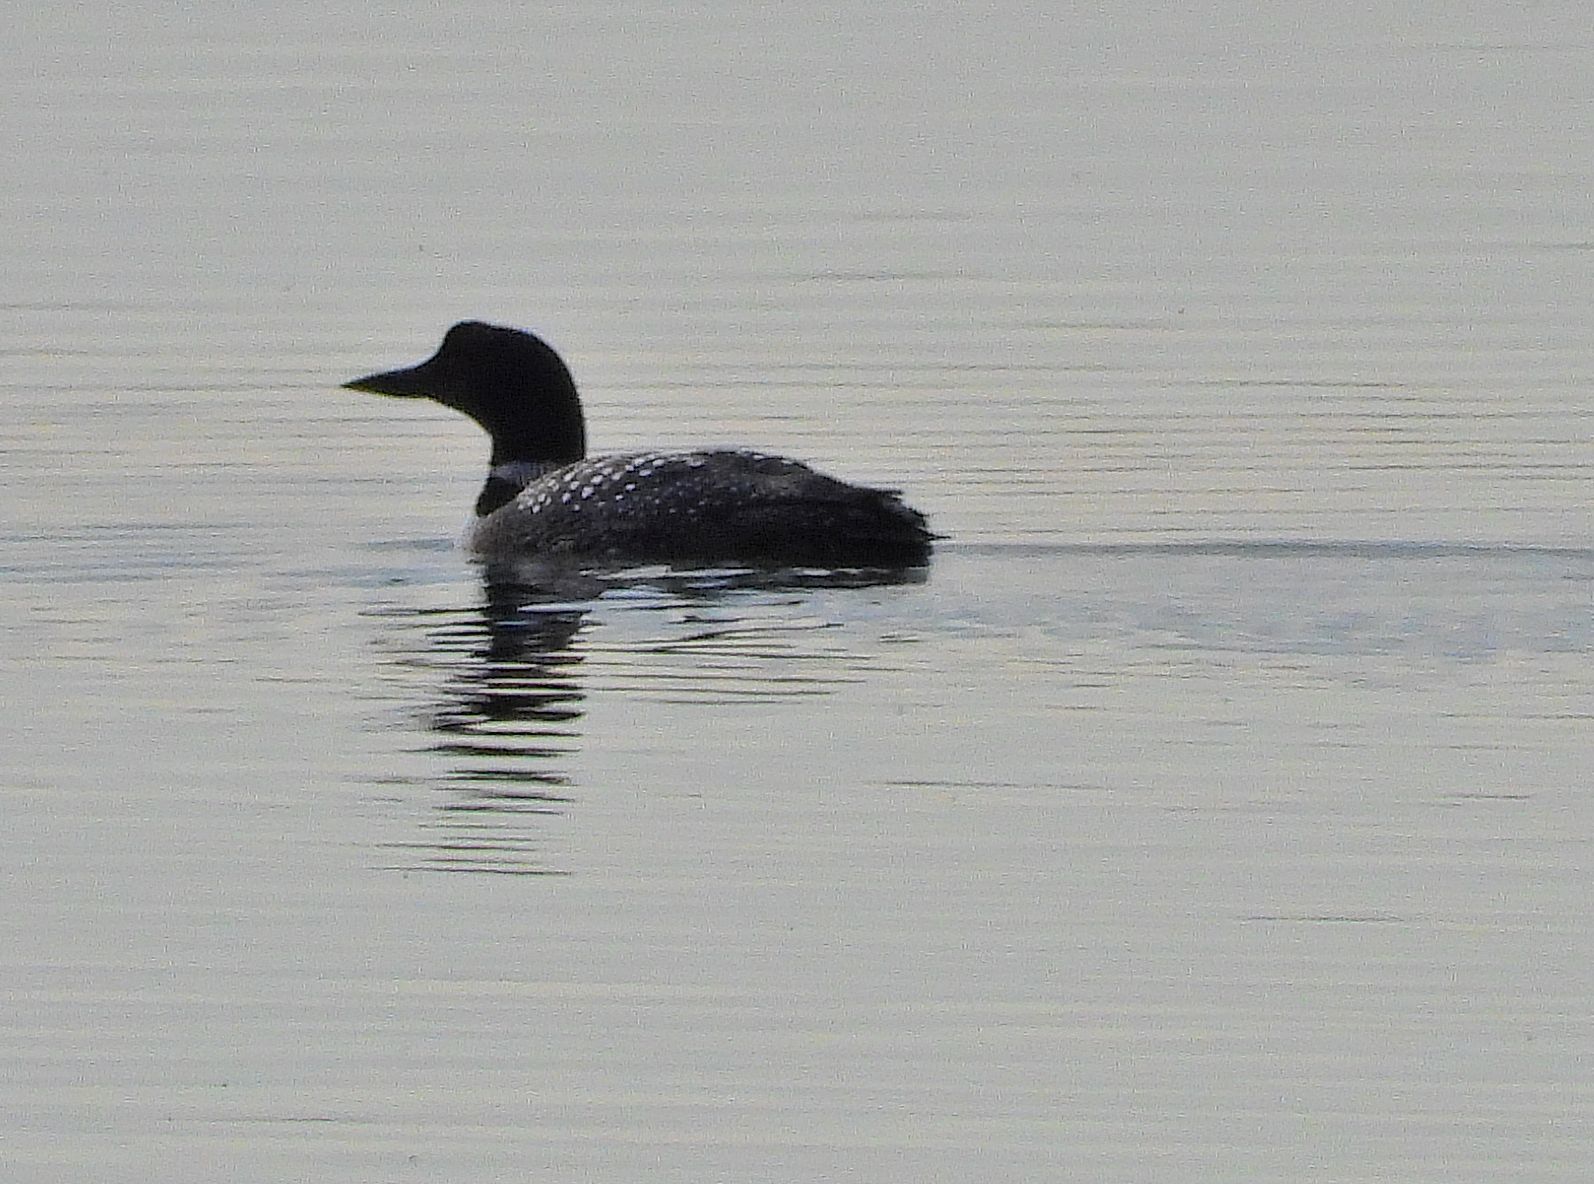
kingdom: Animalia
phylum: Chordata
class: Aves
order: Gaviiformes
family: Gaviidae
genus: Gavia
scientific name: Gavia immer
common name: Common loon
